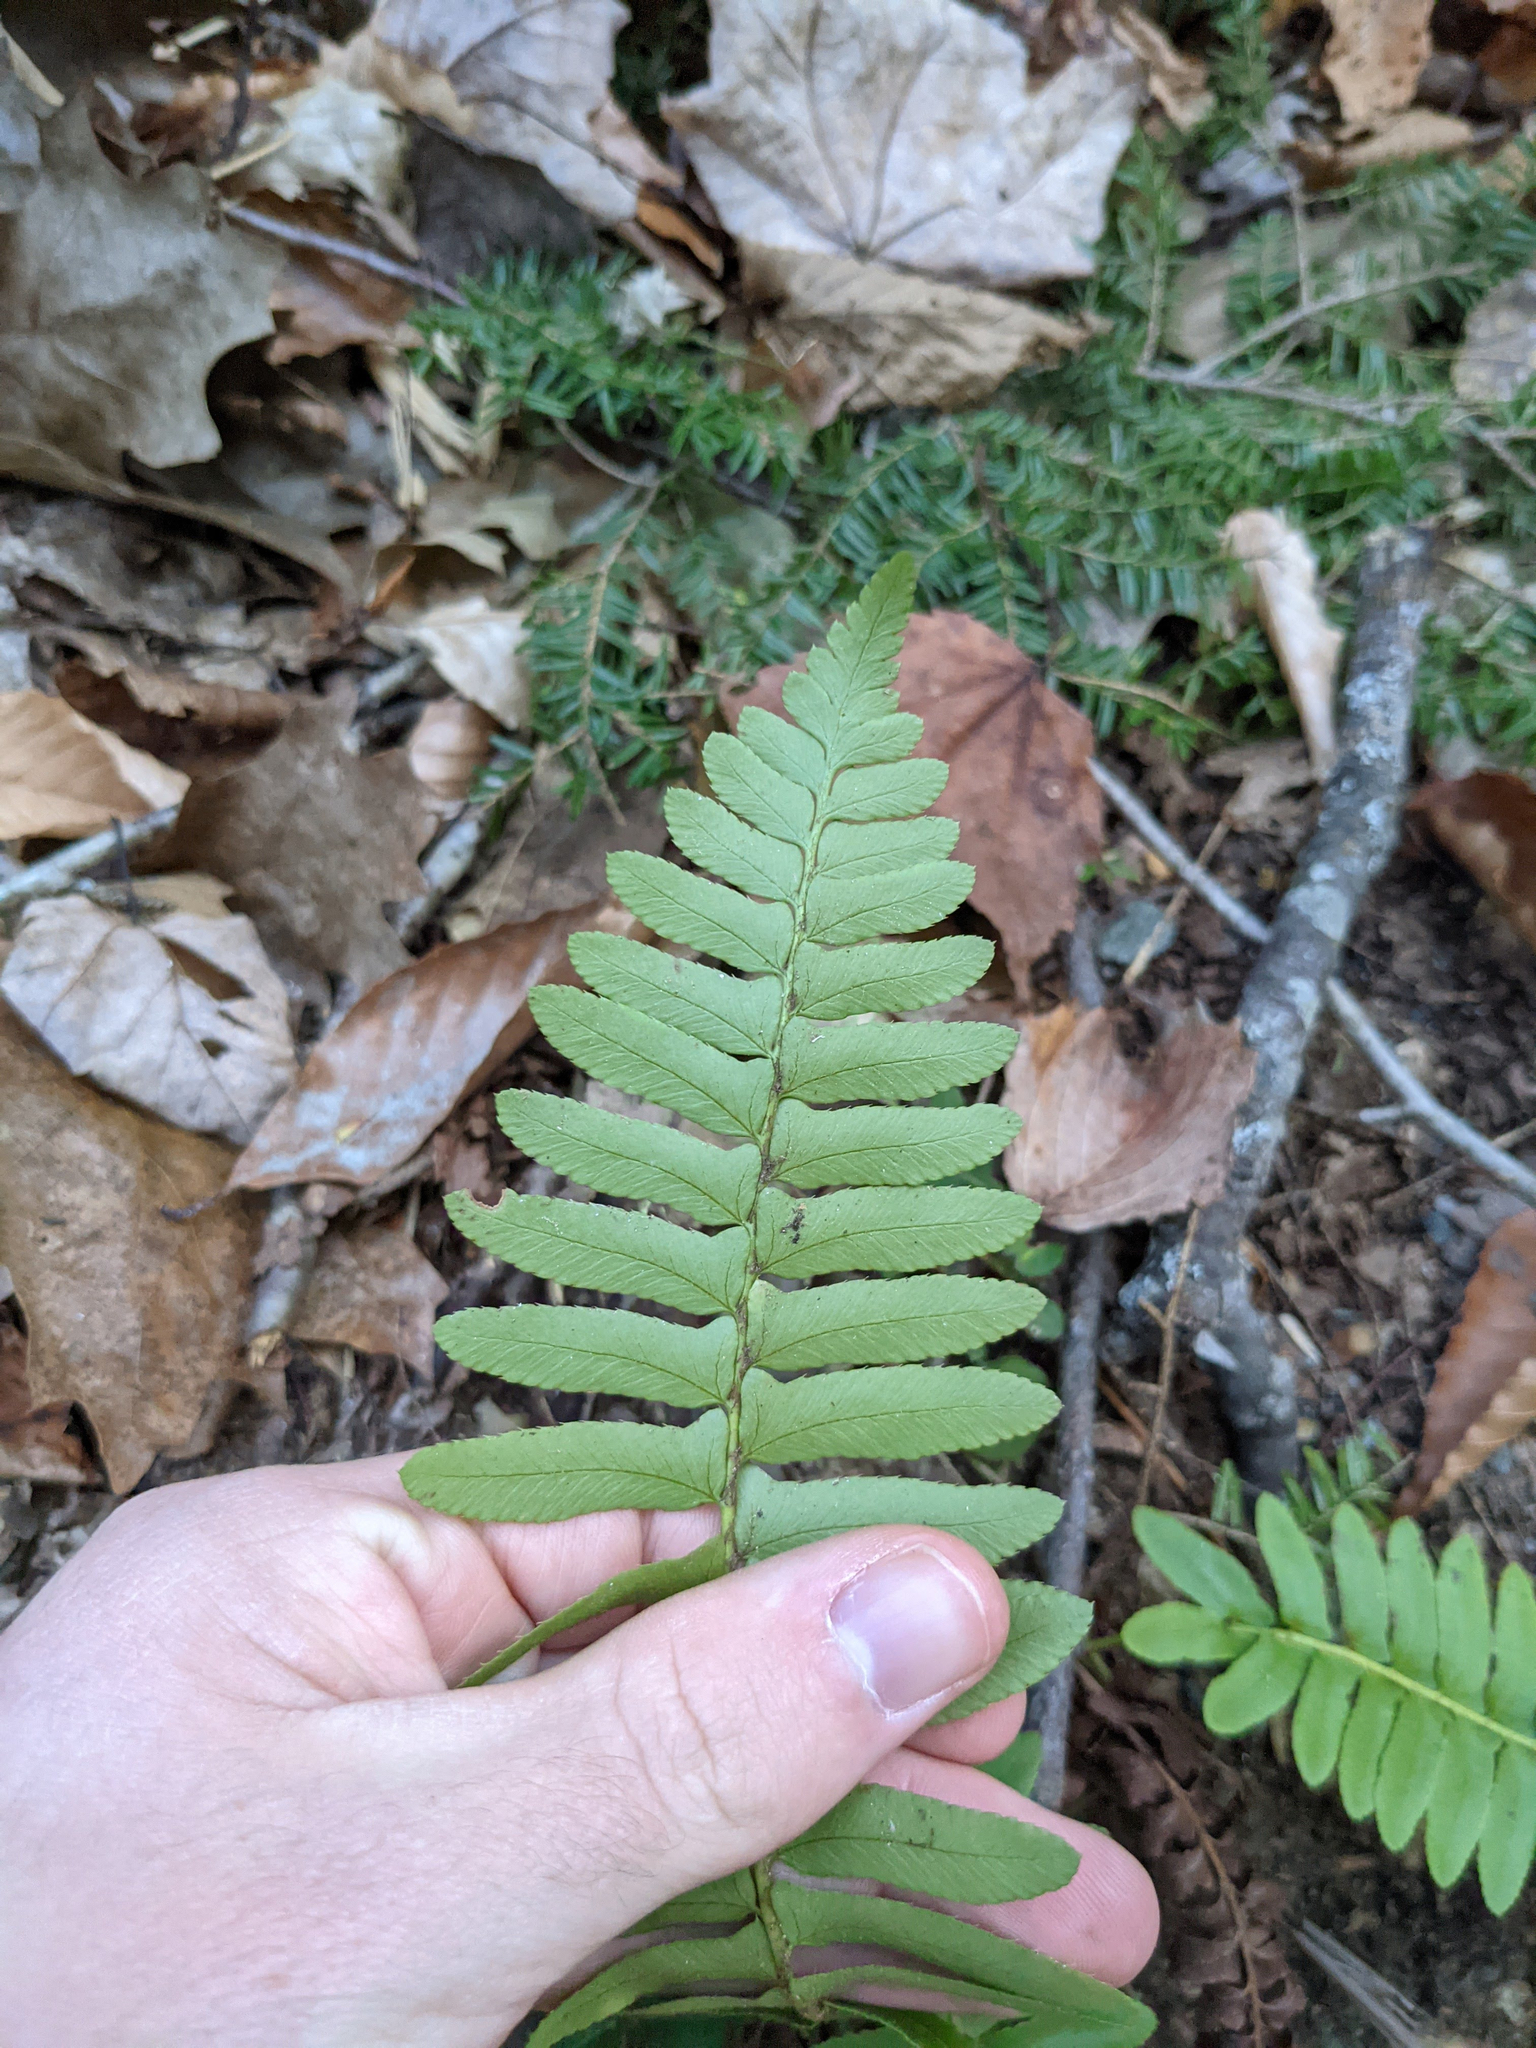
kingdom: Plantae
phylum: Tracheophyta
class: Polypodiopsida
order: Polypodiales
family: Dryopteridaceae
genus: Polystichum
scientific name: Polystichum acrostichoides
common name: Christmas fern
